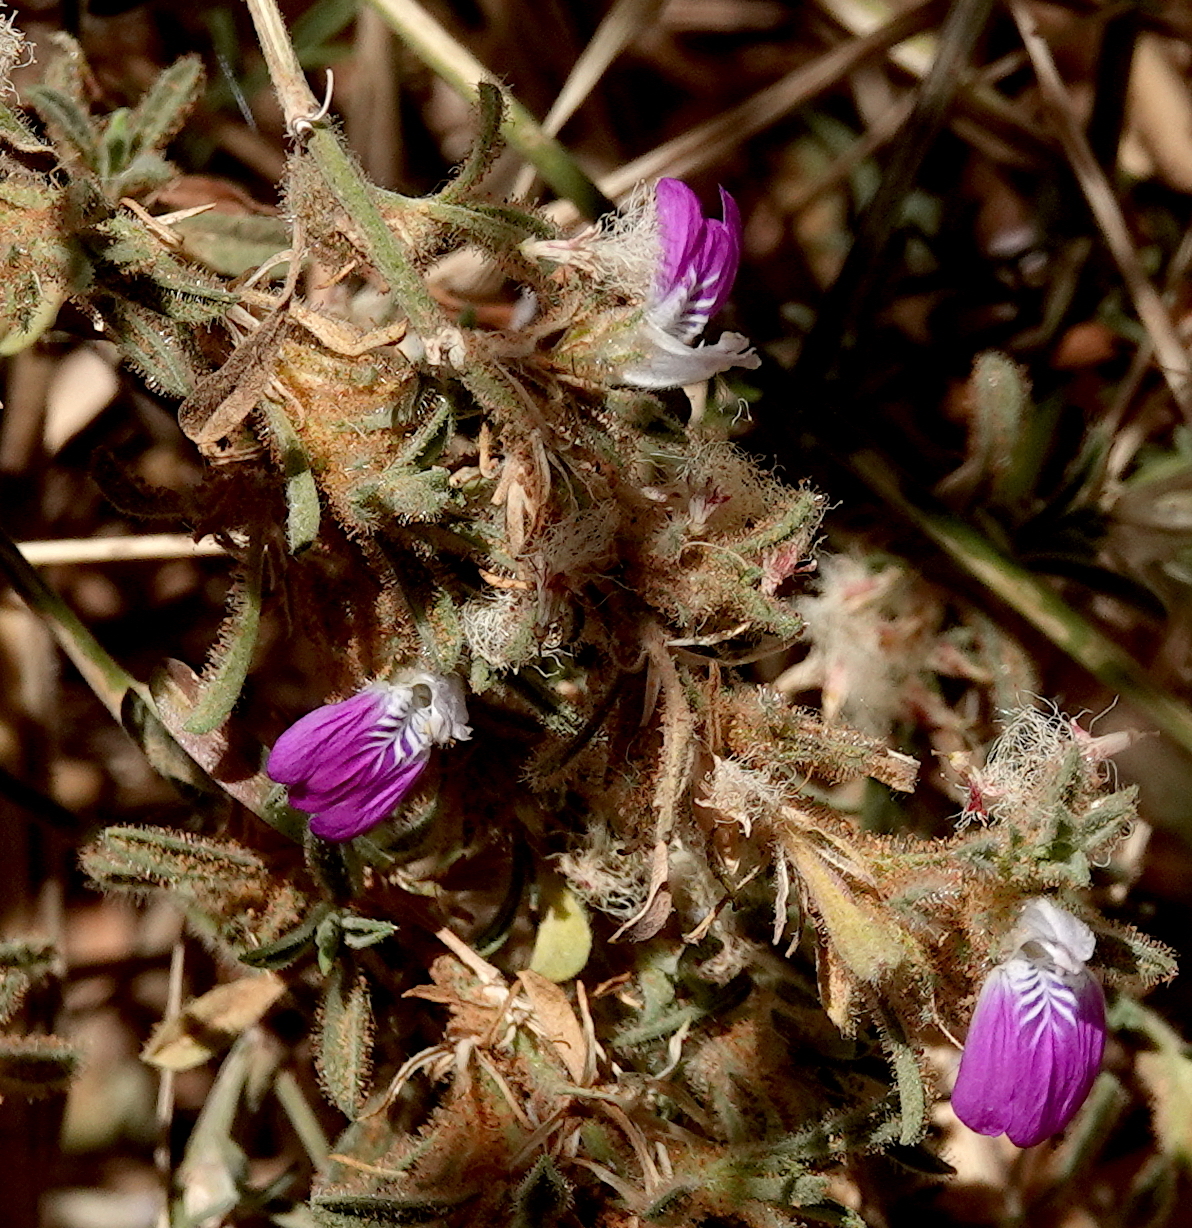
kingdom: Plantae
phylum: Tracheophyta
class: Magnoliopsida
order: Lamiales
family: Acanthaceae
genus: Pogonospermum
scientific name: Pogonospermum
